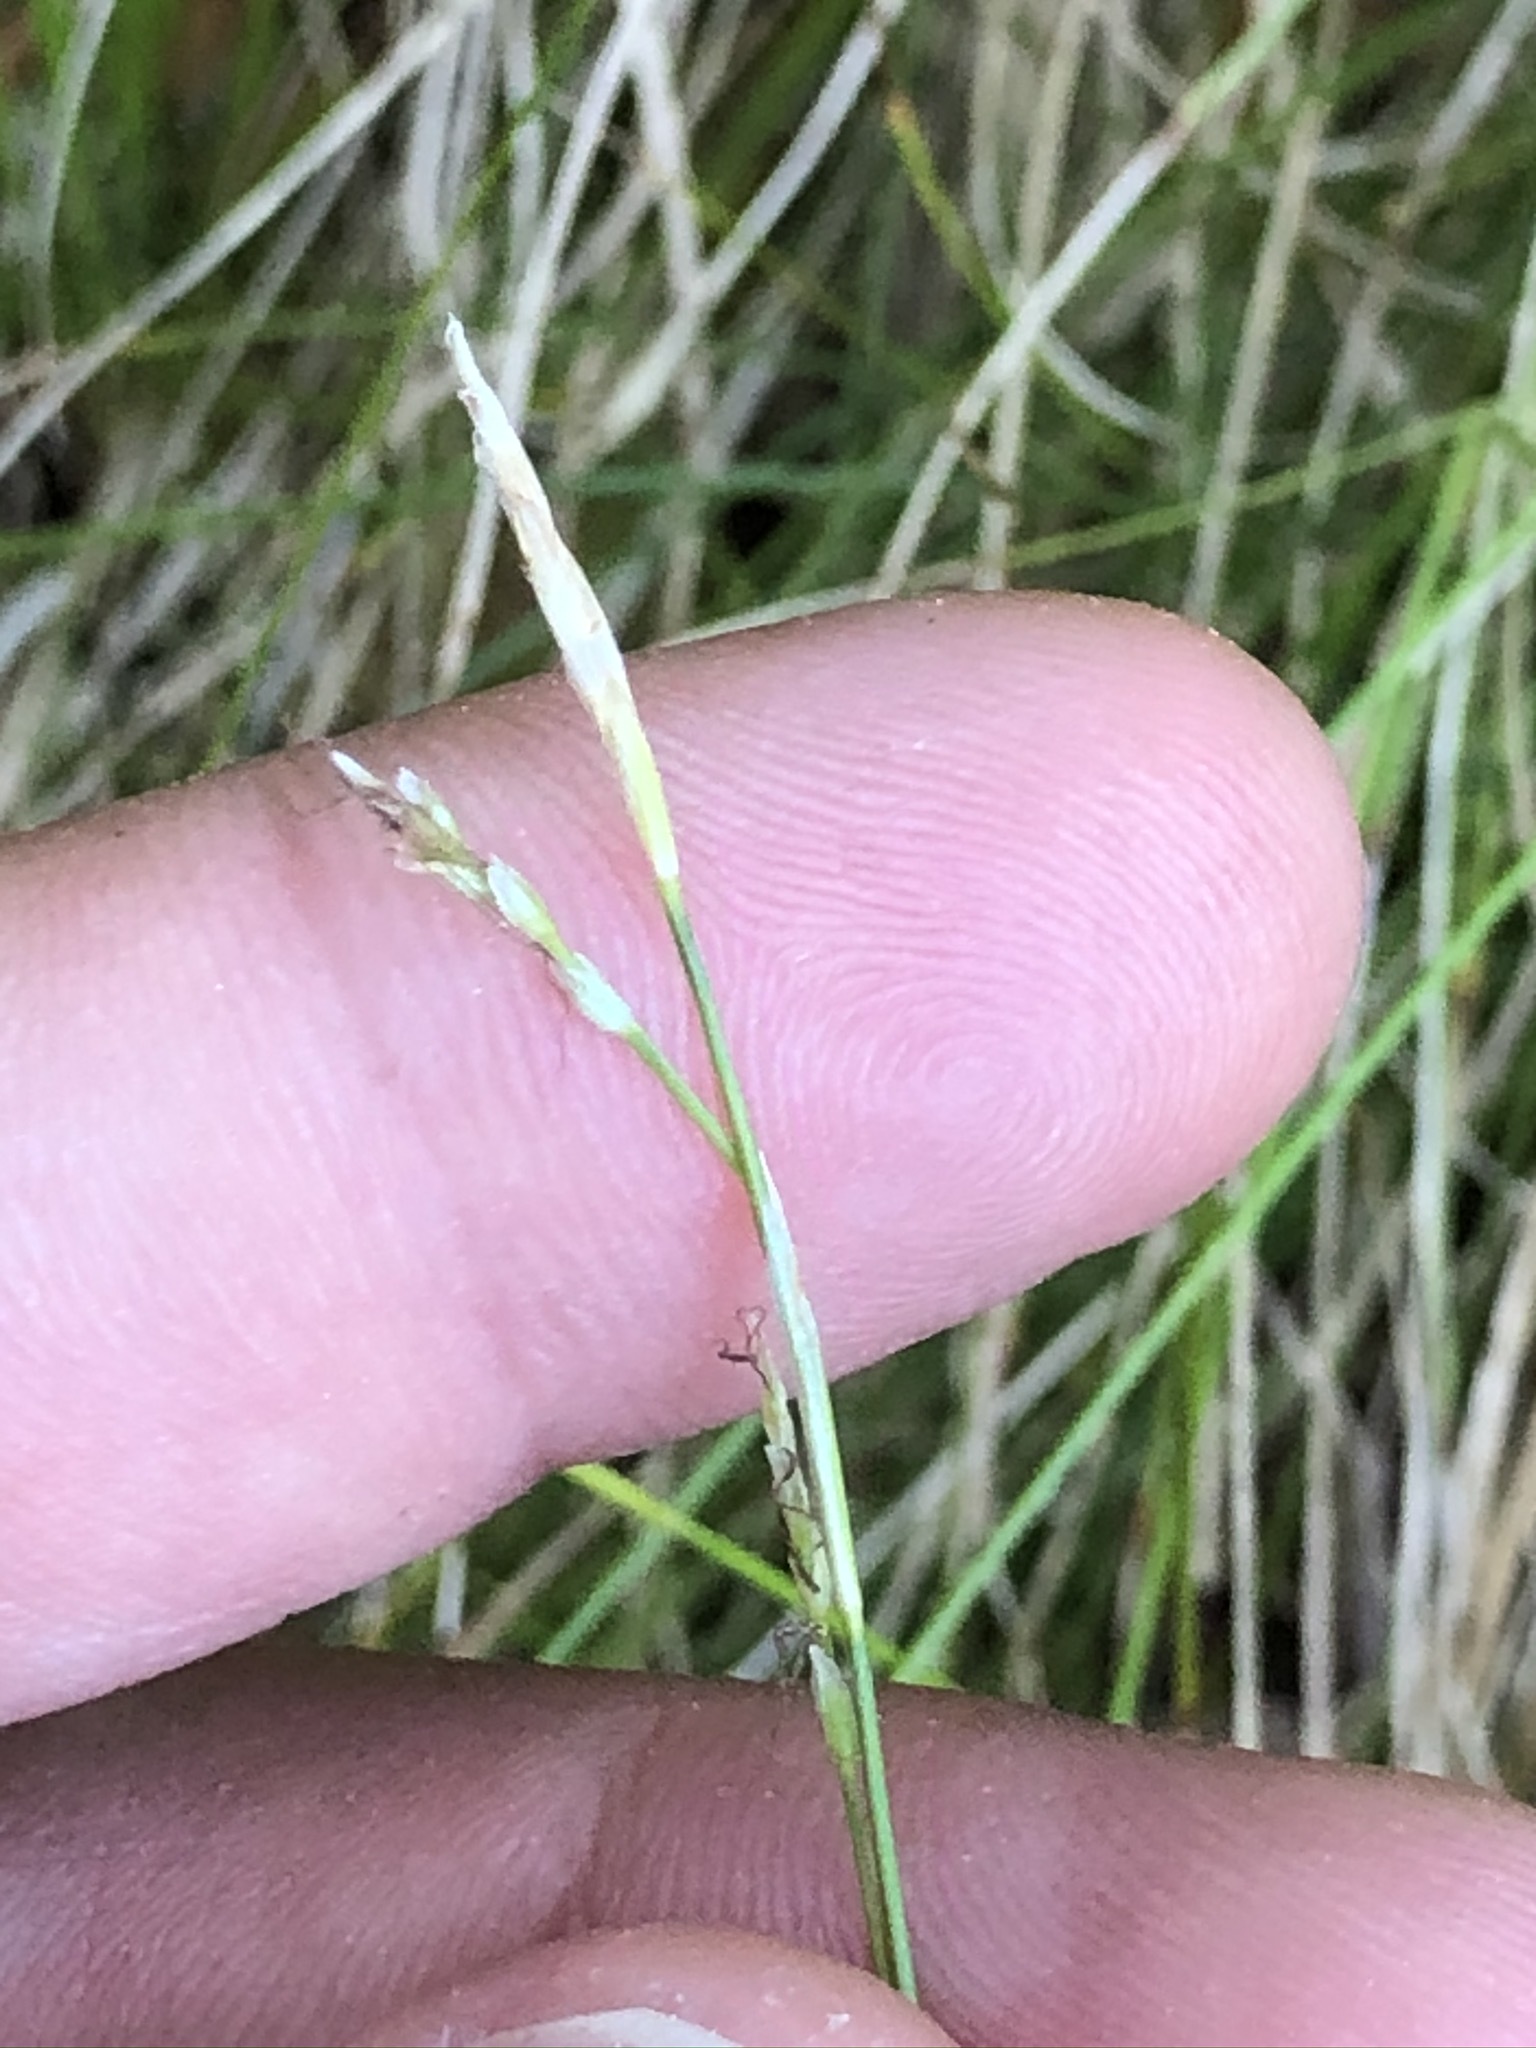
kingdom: Plantae
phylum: Tracheophyta
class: Liliopsida
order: Poales
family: Cyperaceae
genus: Carex
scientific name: Carex alba
